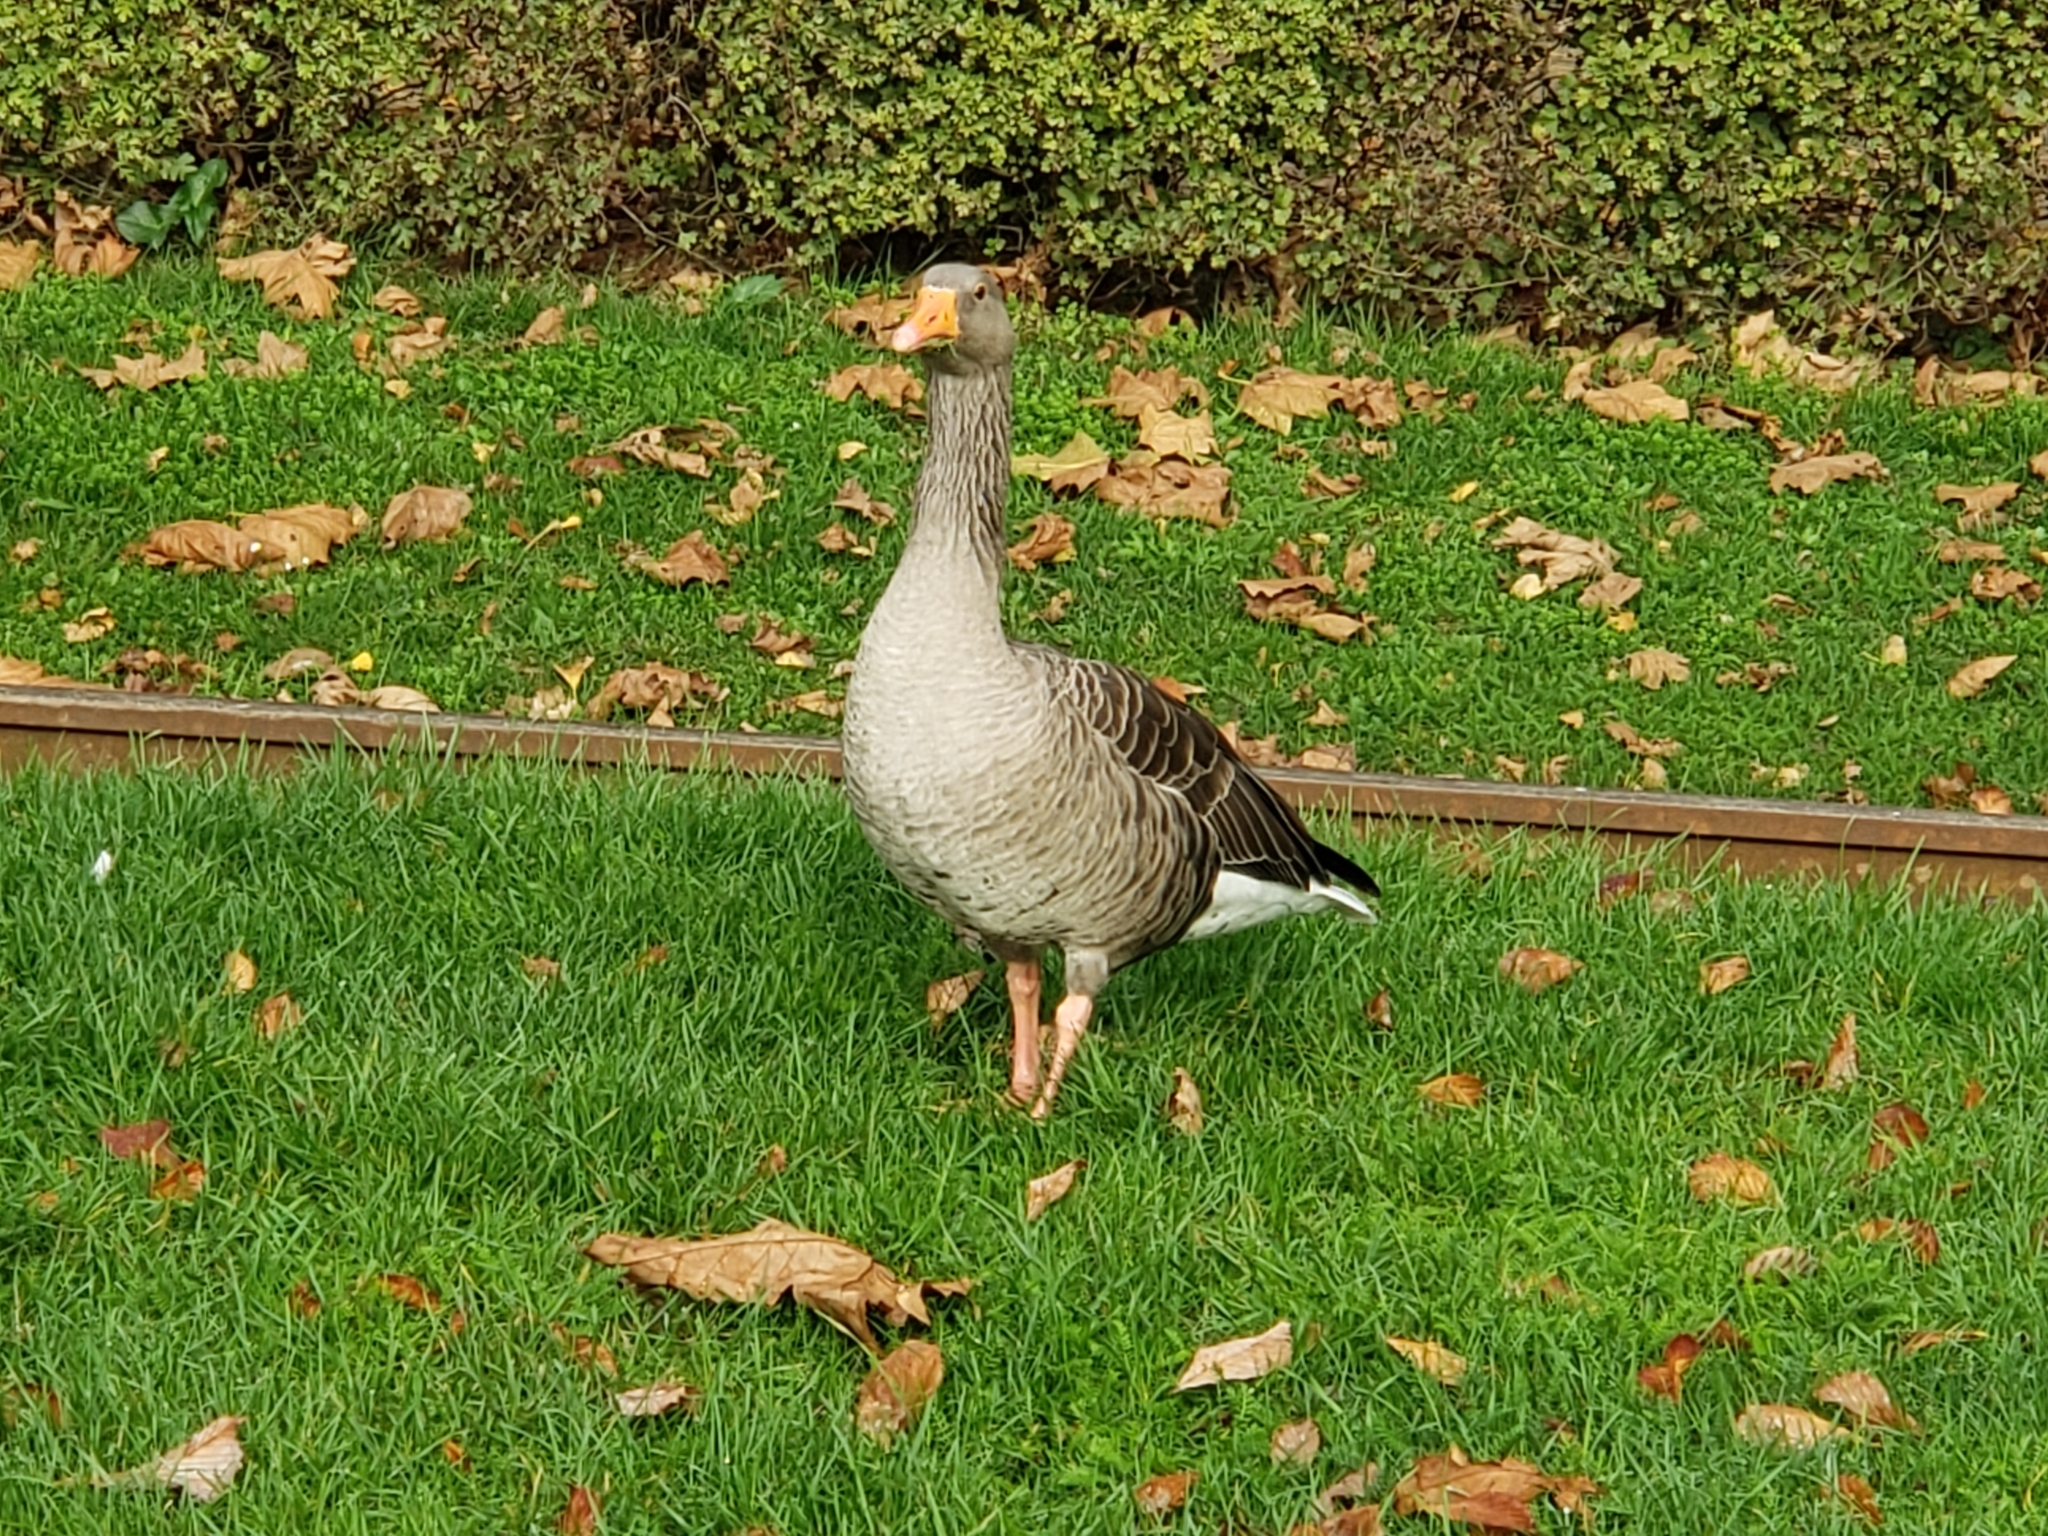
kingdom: Animalia
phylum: Chordata
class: Aves
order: Anseriformes
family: Anatidae
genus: Anser
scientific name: Anser anser
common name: Greylag goose
